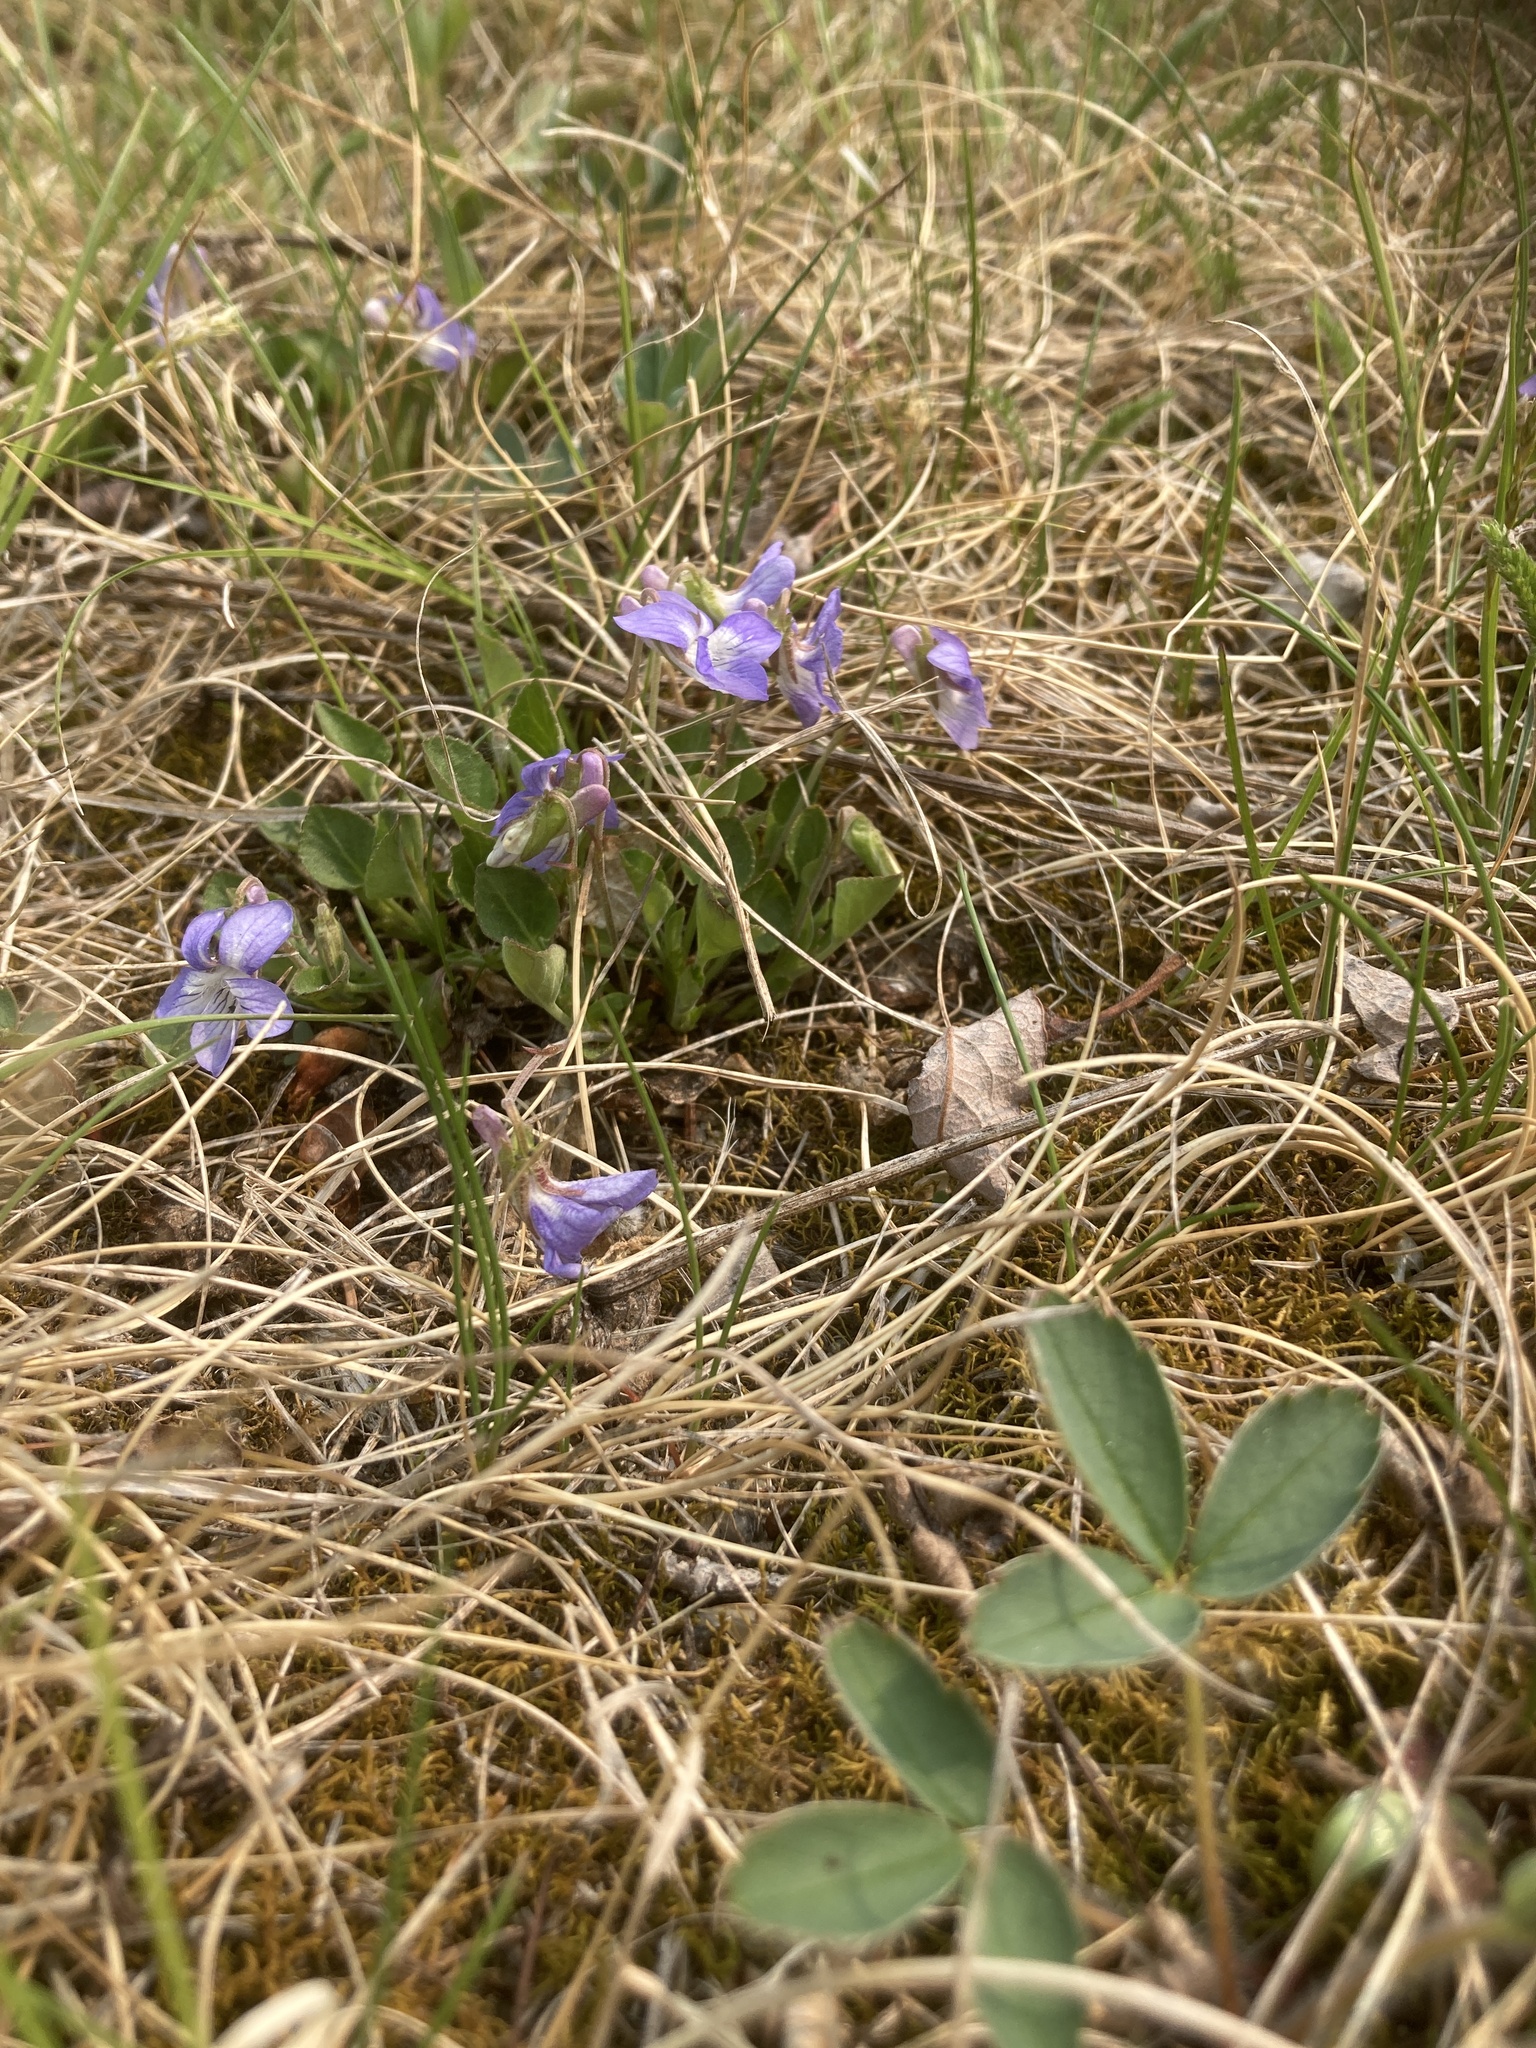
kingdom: Plantae
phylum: Tracheophyta
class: Magnoliopsida
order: Malpighiales
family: Violaceae
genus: Viola
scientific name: Viola adunca
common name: Sand violet
